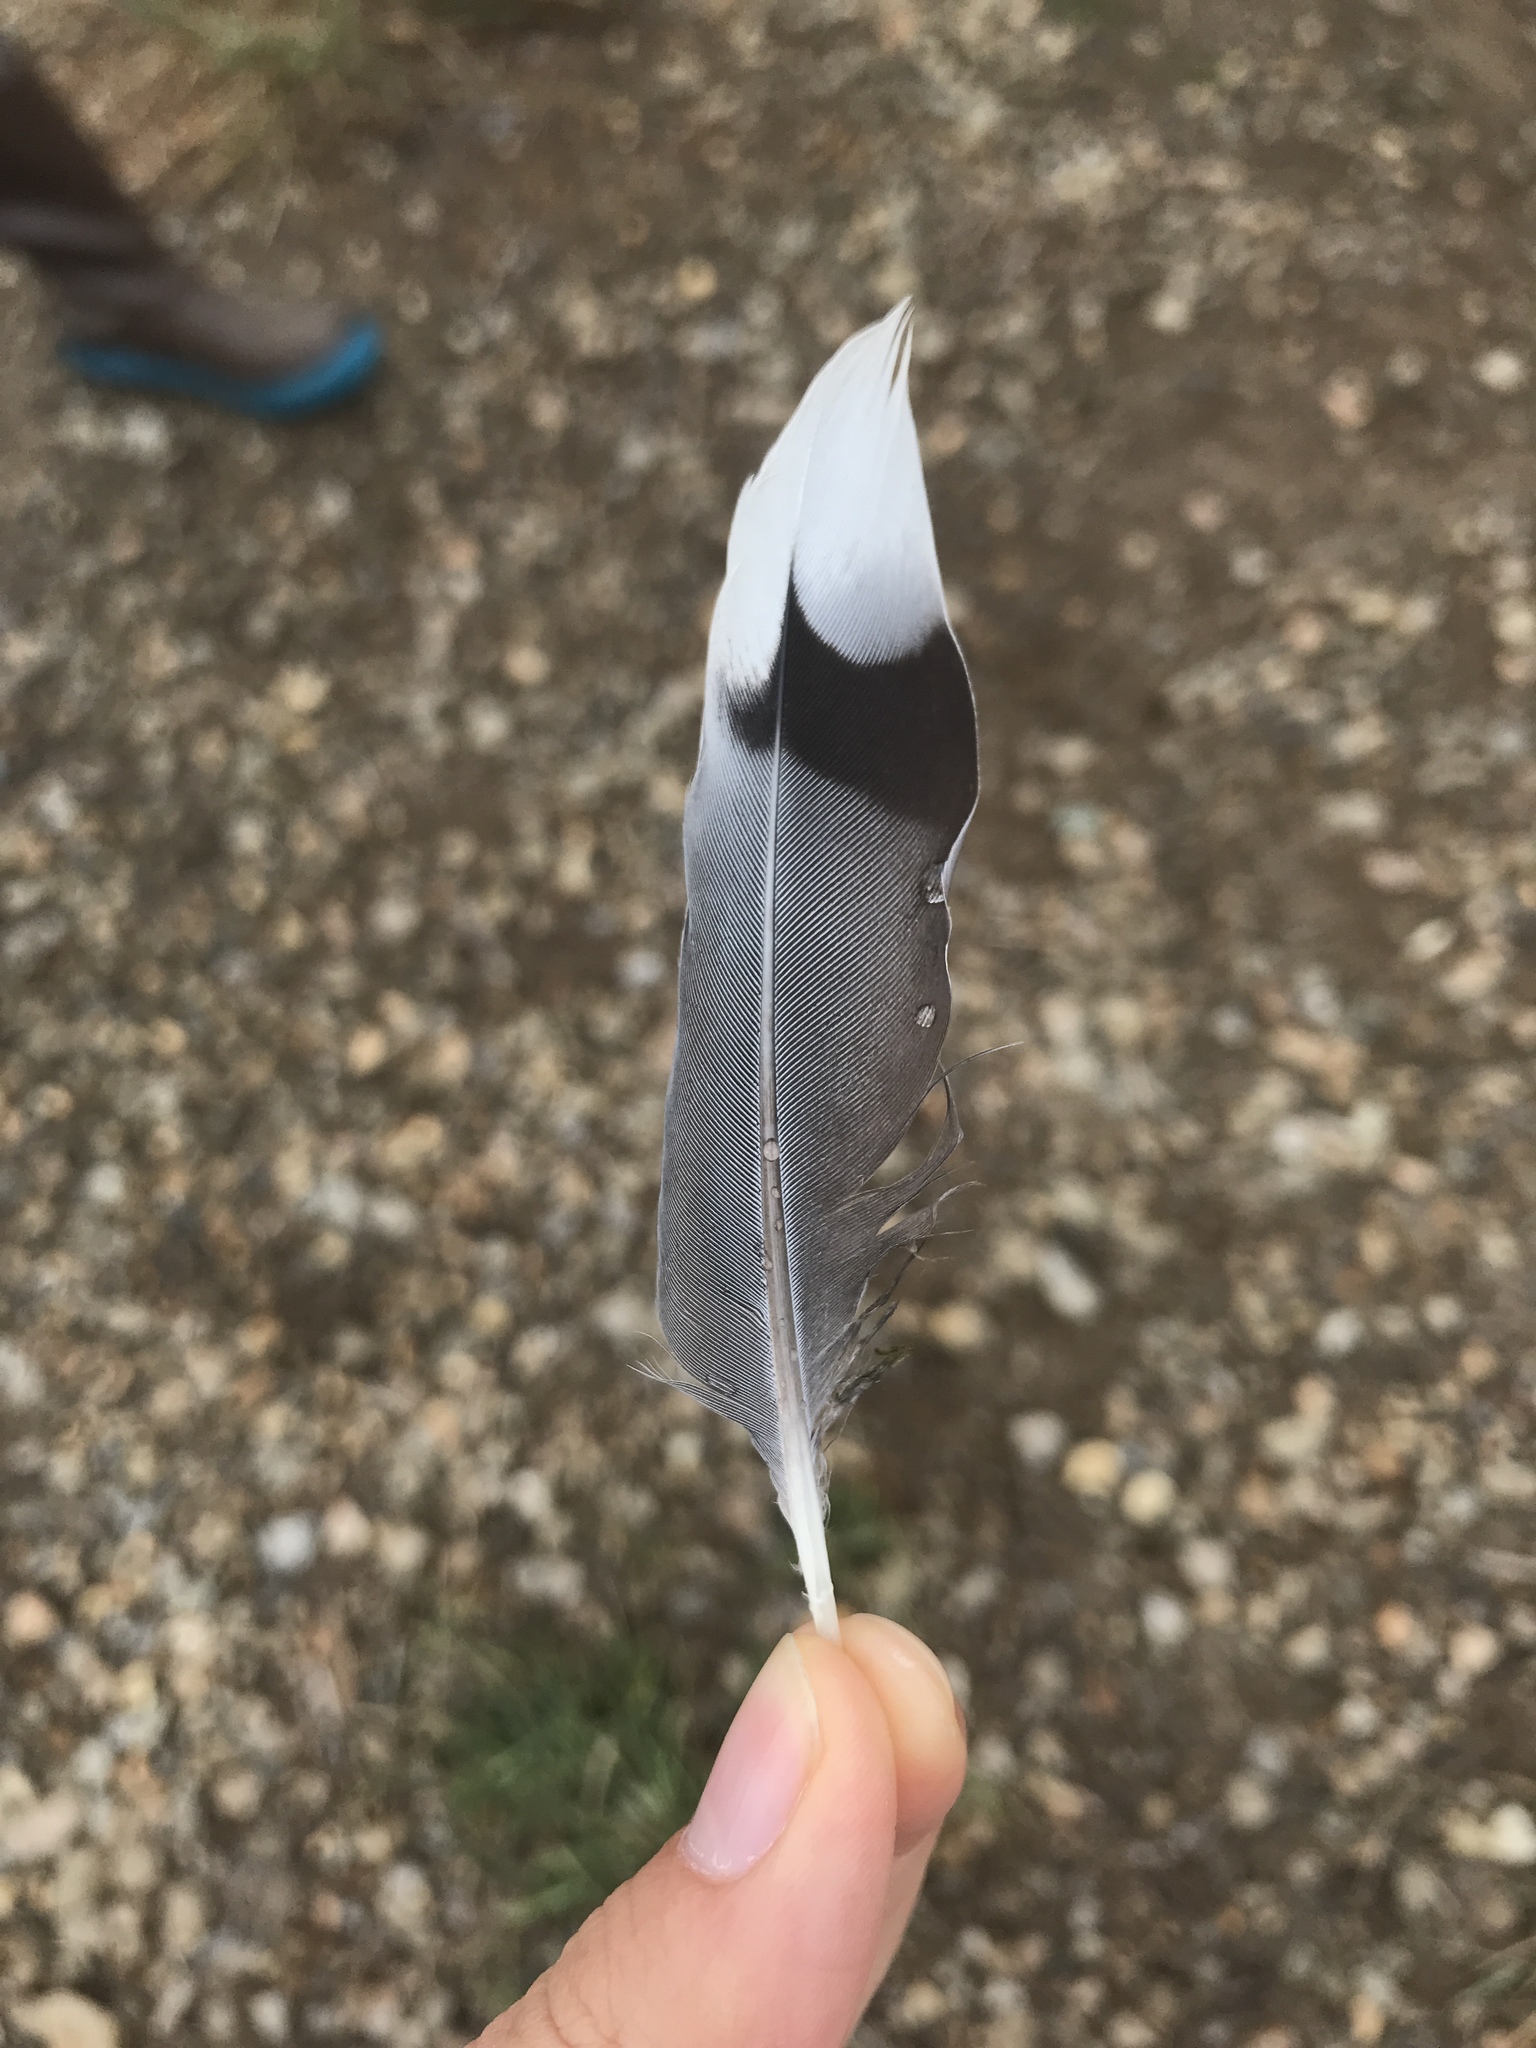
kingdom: Animalia
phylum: Chordata
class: Aves
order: Columbiformes
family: Columbidae
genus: Zenaida
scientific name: Zenaida macroura
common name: Mourning dove
